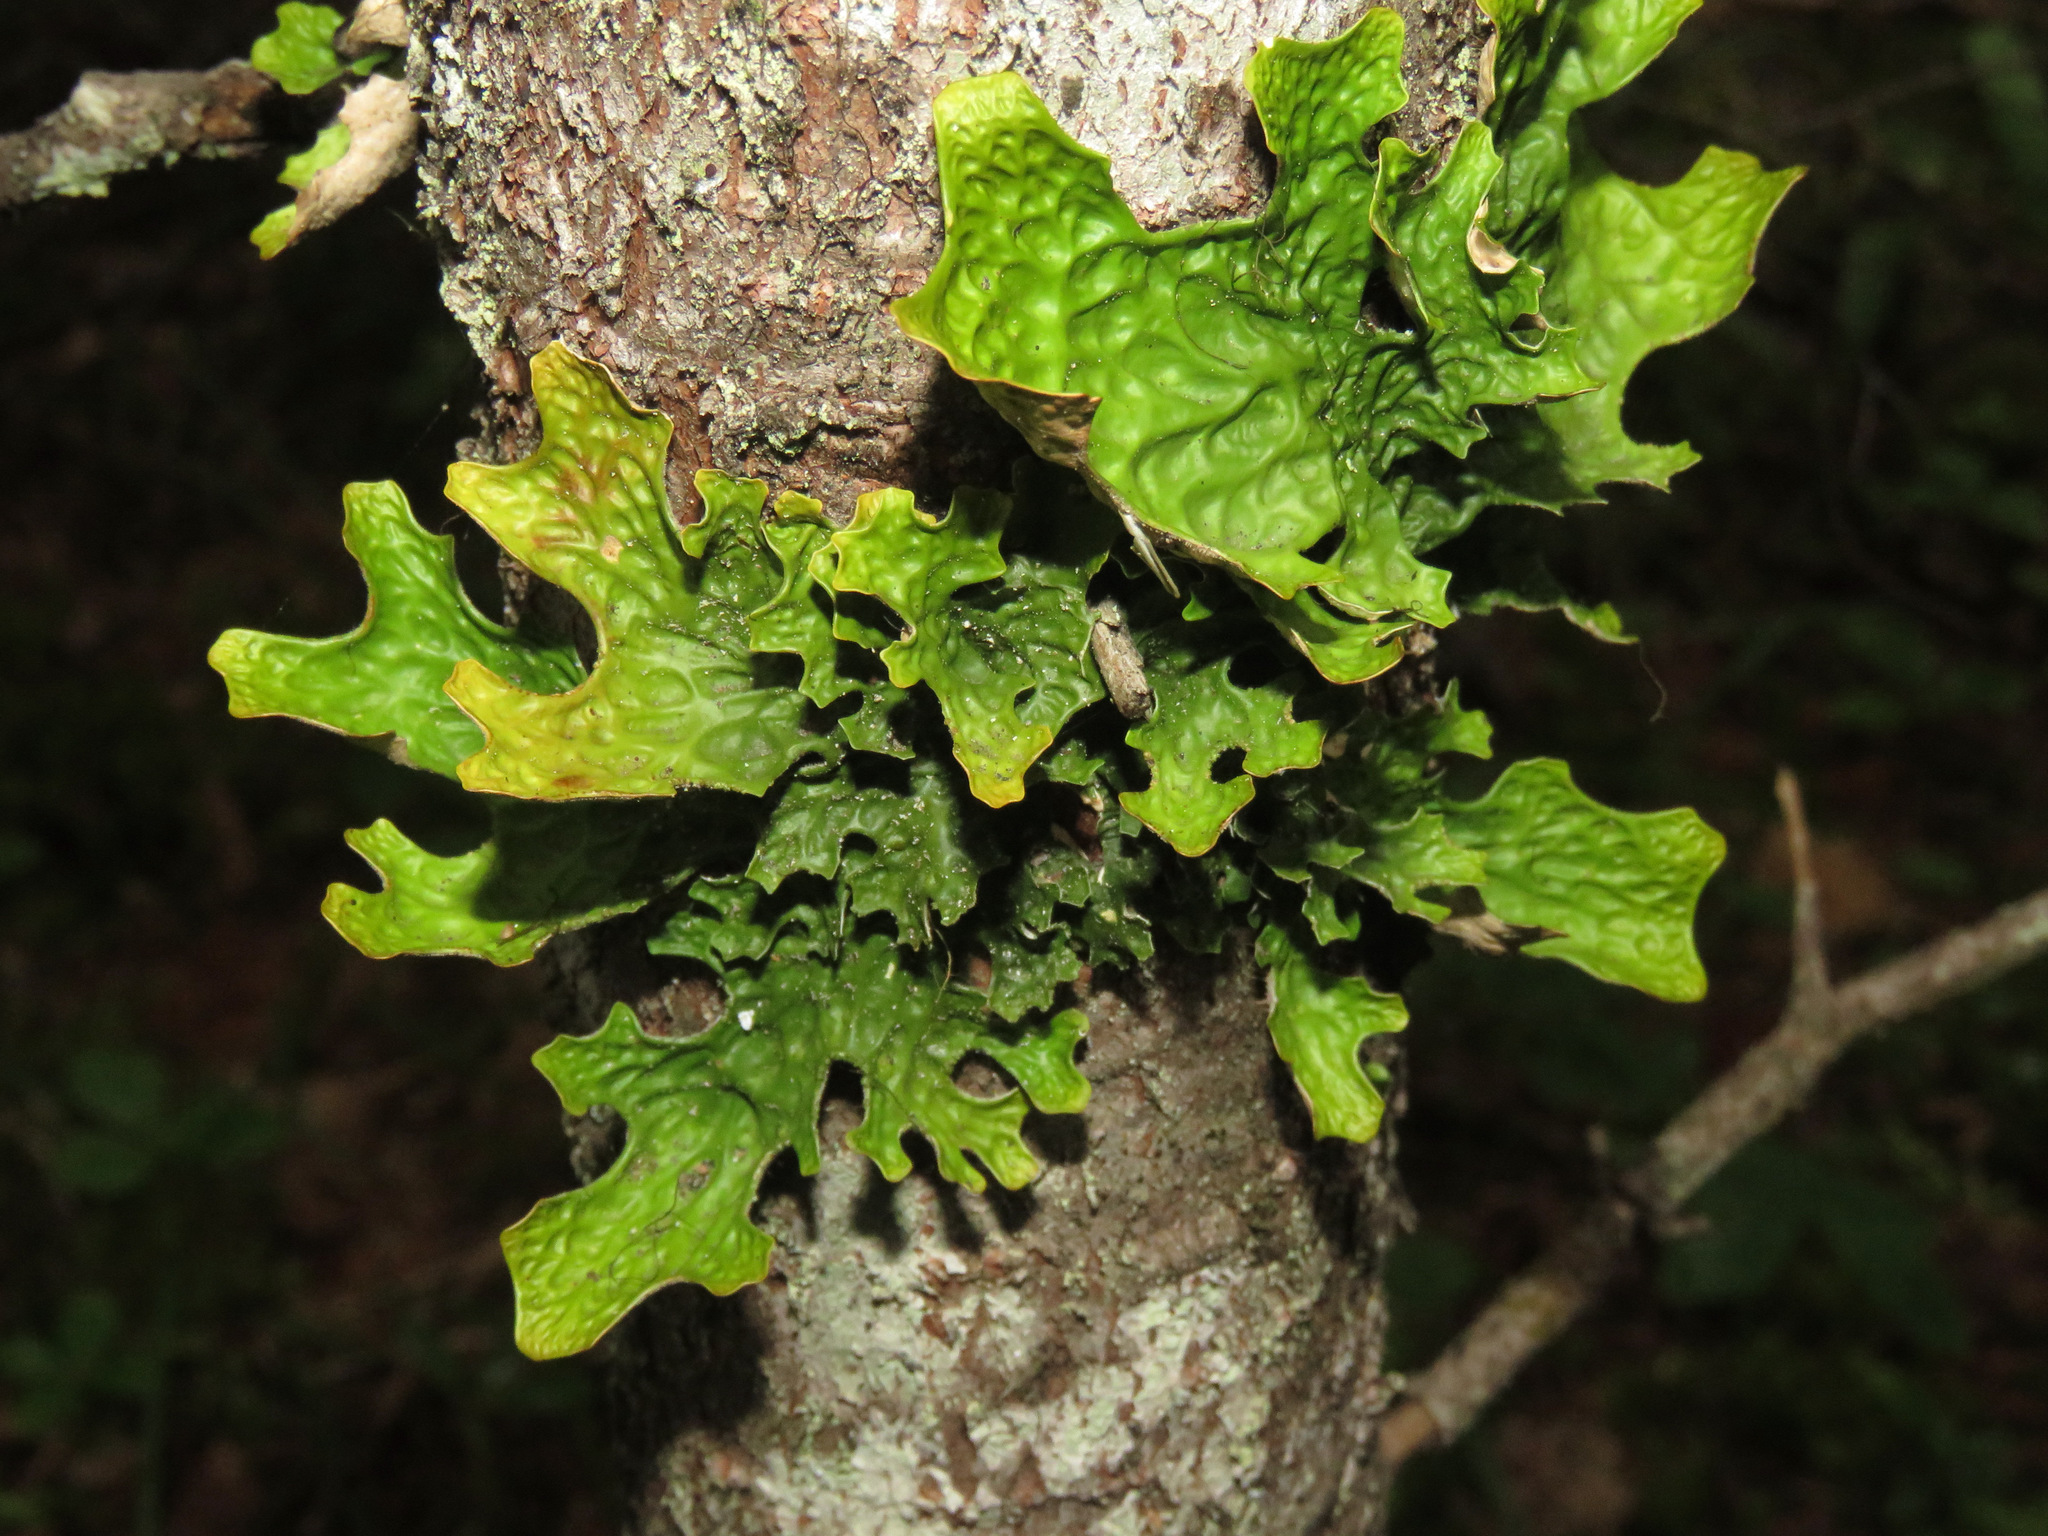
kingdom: Fungi
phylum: Ascomycota
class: Lecanoromycetes
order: Peltigerales
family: Lobariaceae
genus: Lobaria
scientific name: Lobaria pulmonaria
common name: Lungwort
